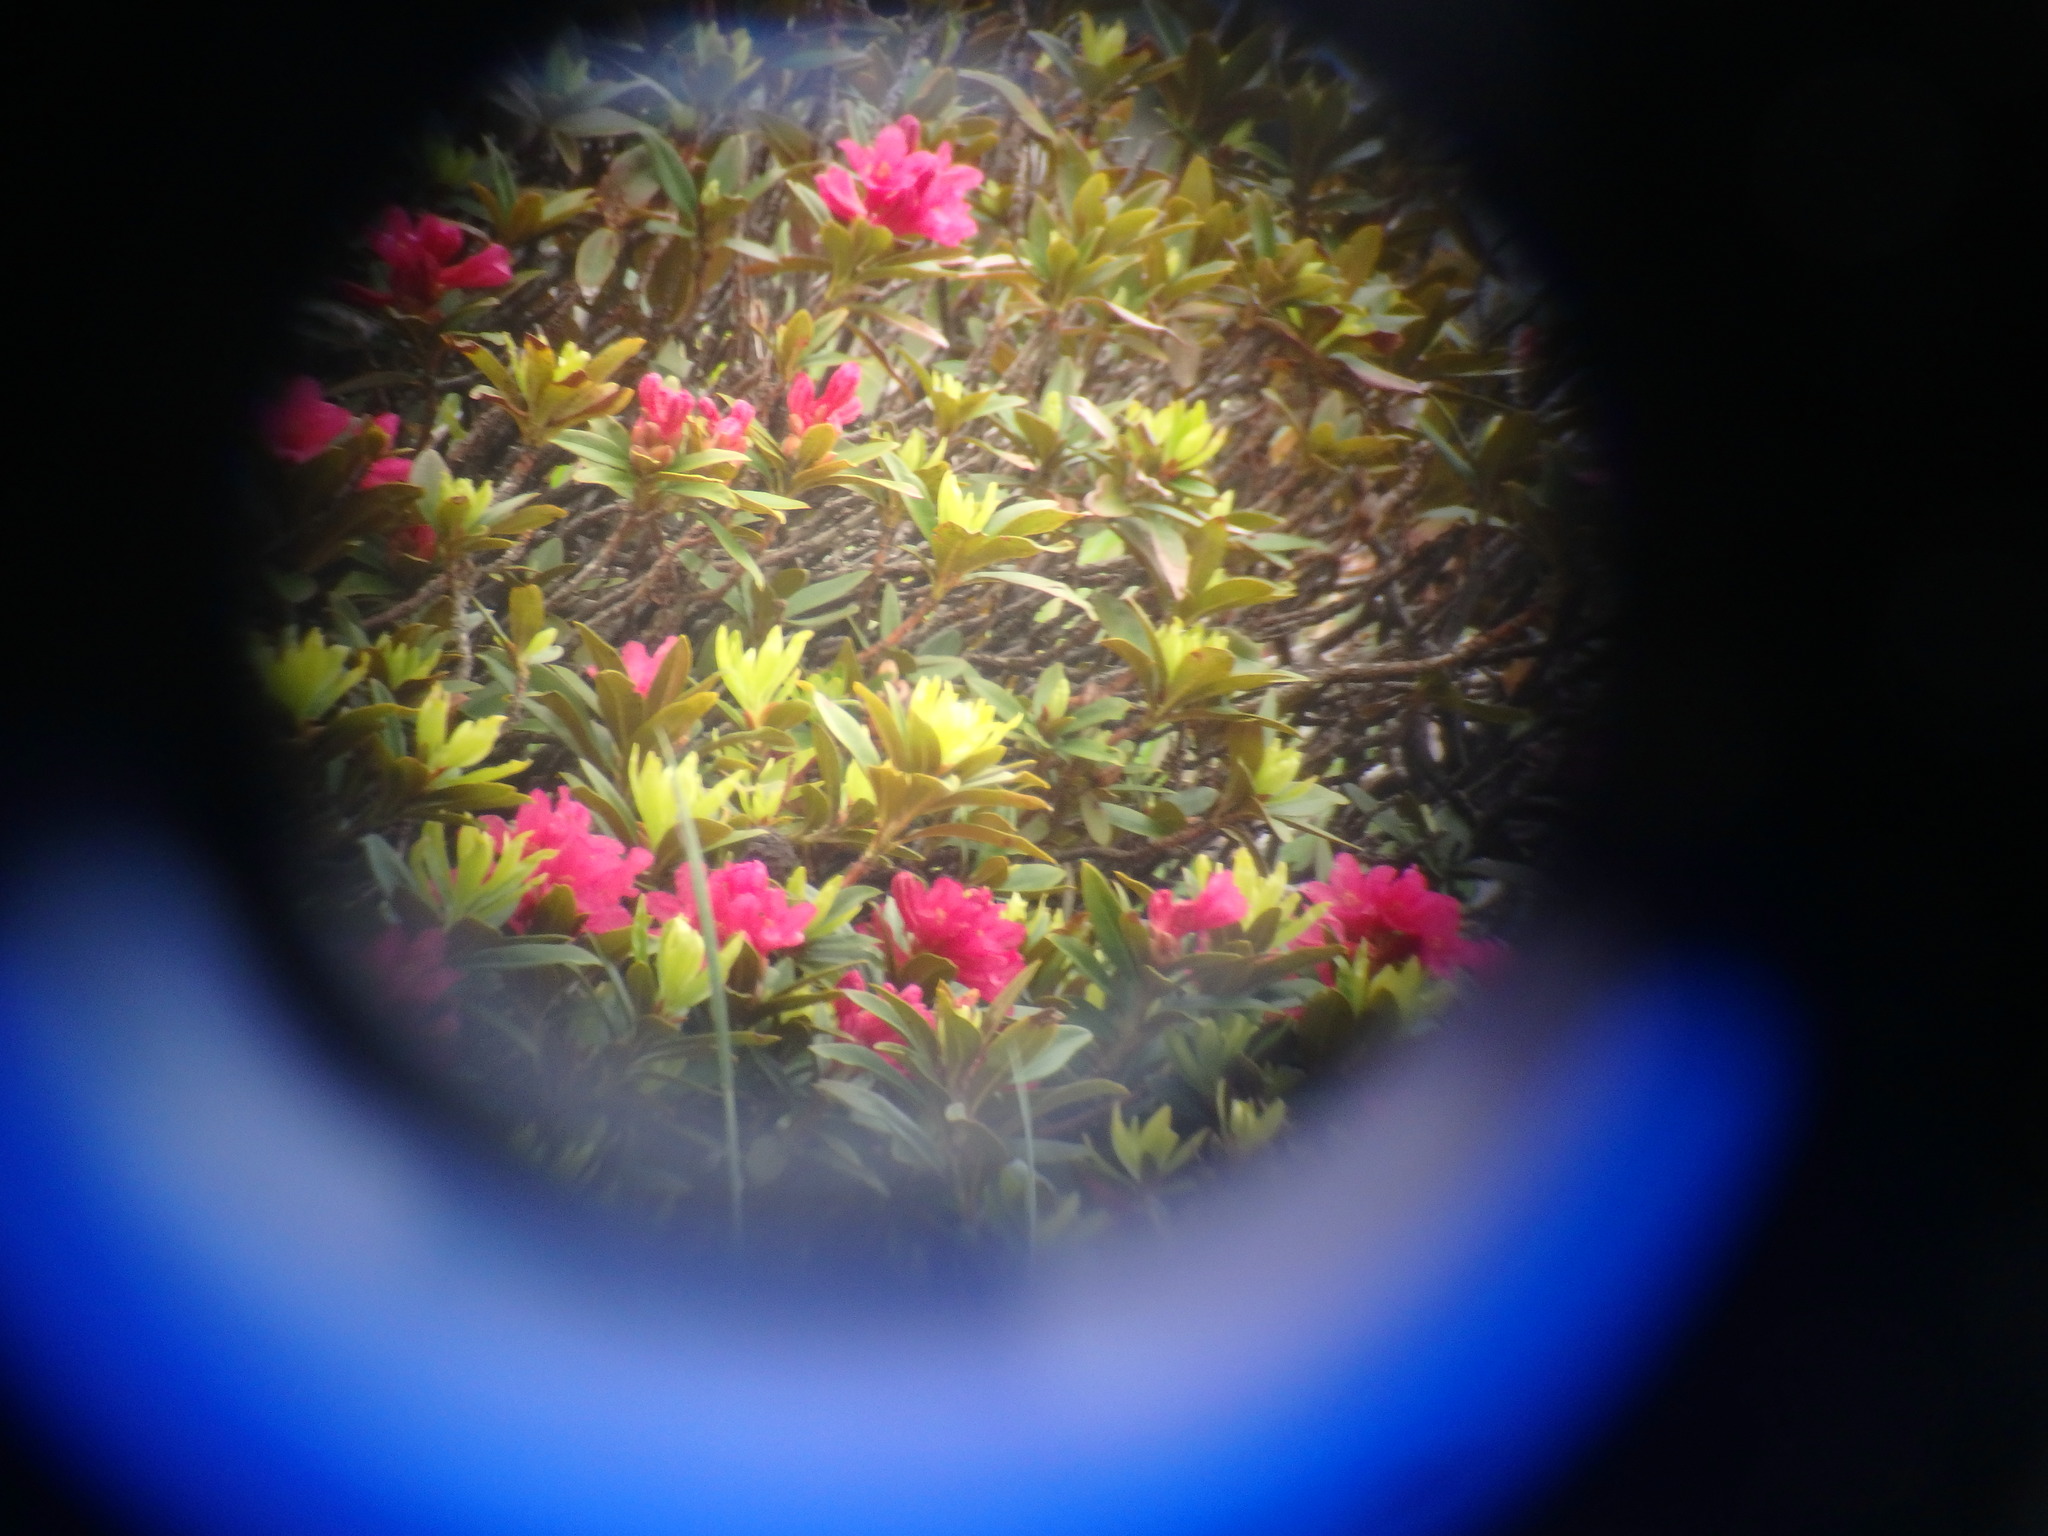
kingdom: Plantae
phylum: Tracheophyta
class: Magnoliopsida
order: Ericales
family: Ericaceae
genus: Rhododendron
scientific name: Rhododendron ferrugineum
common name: Alpenrose
